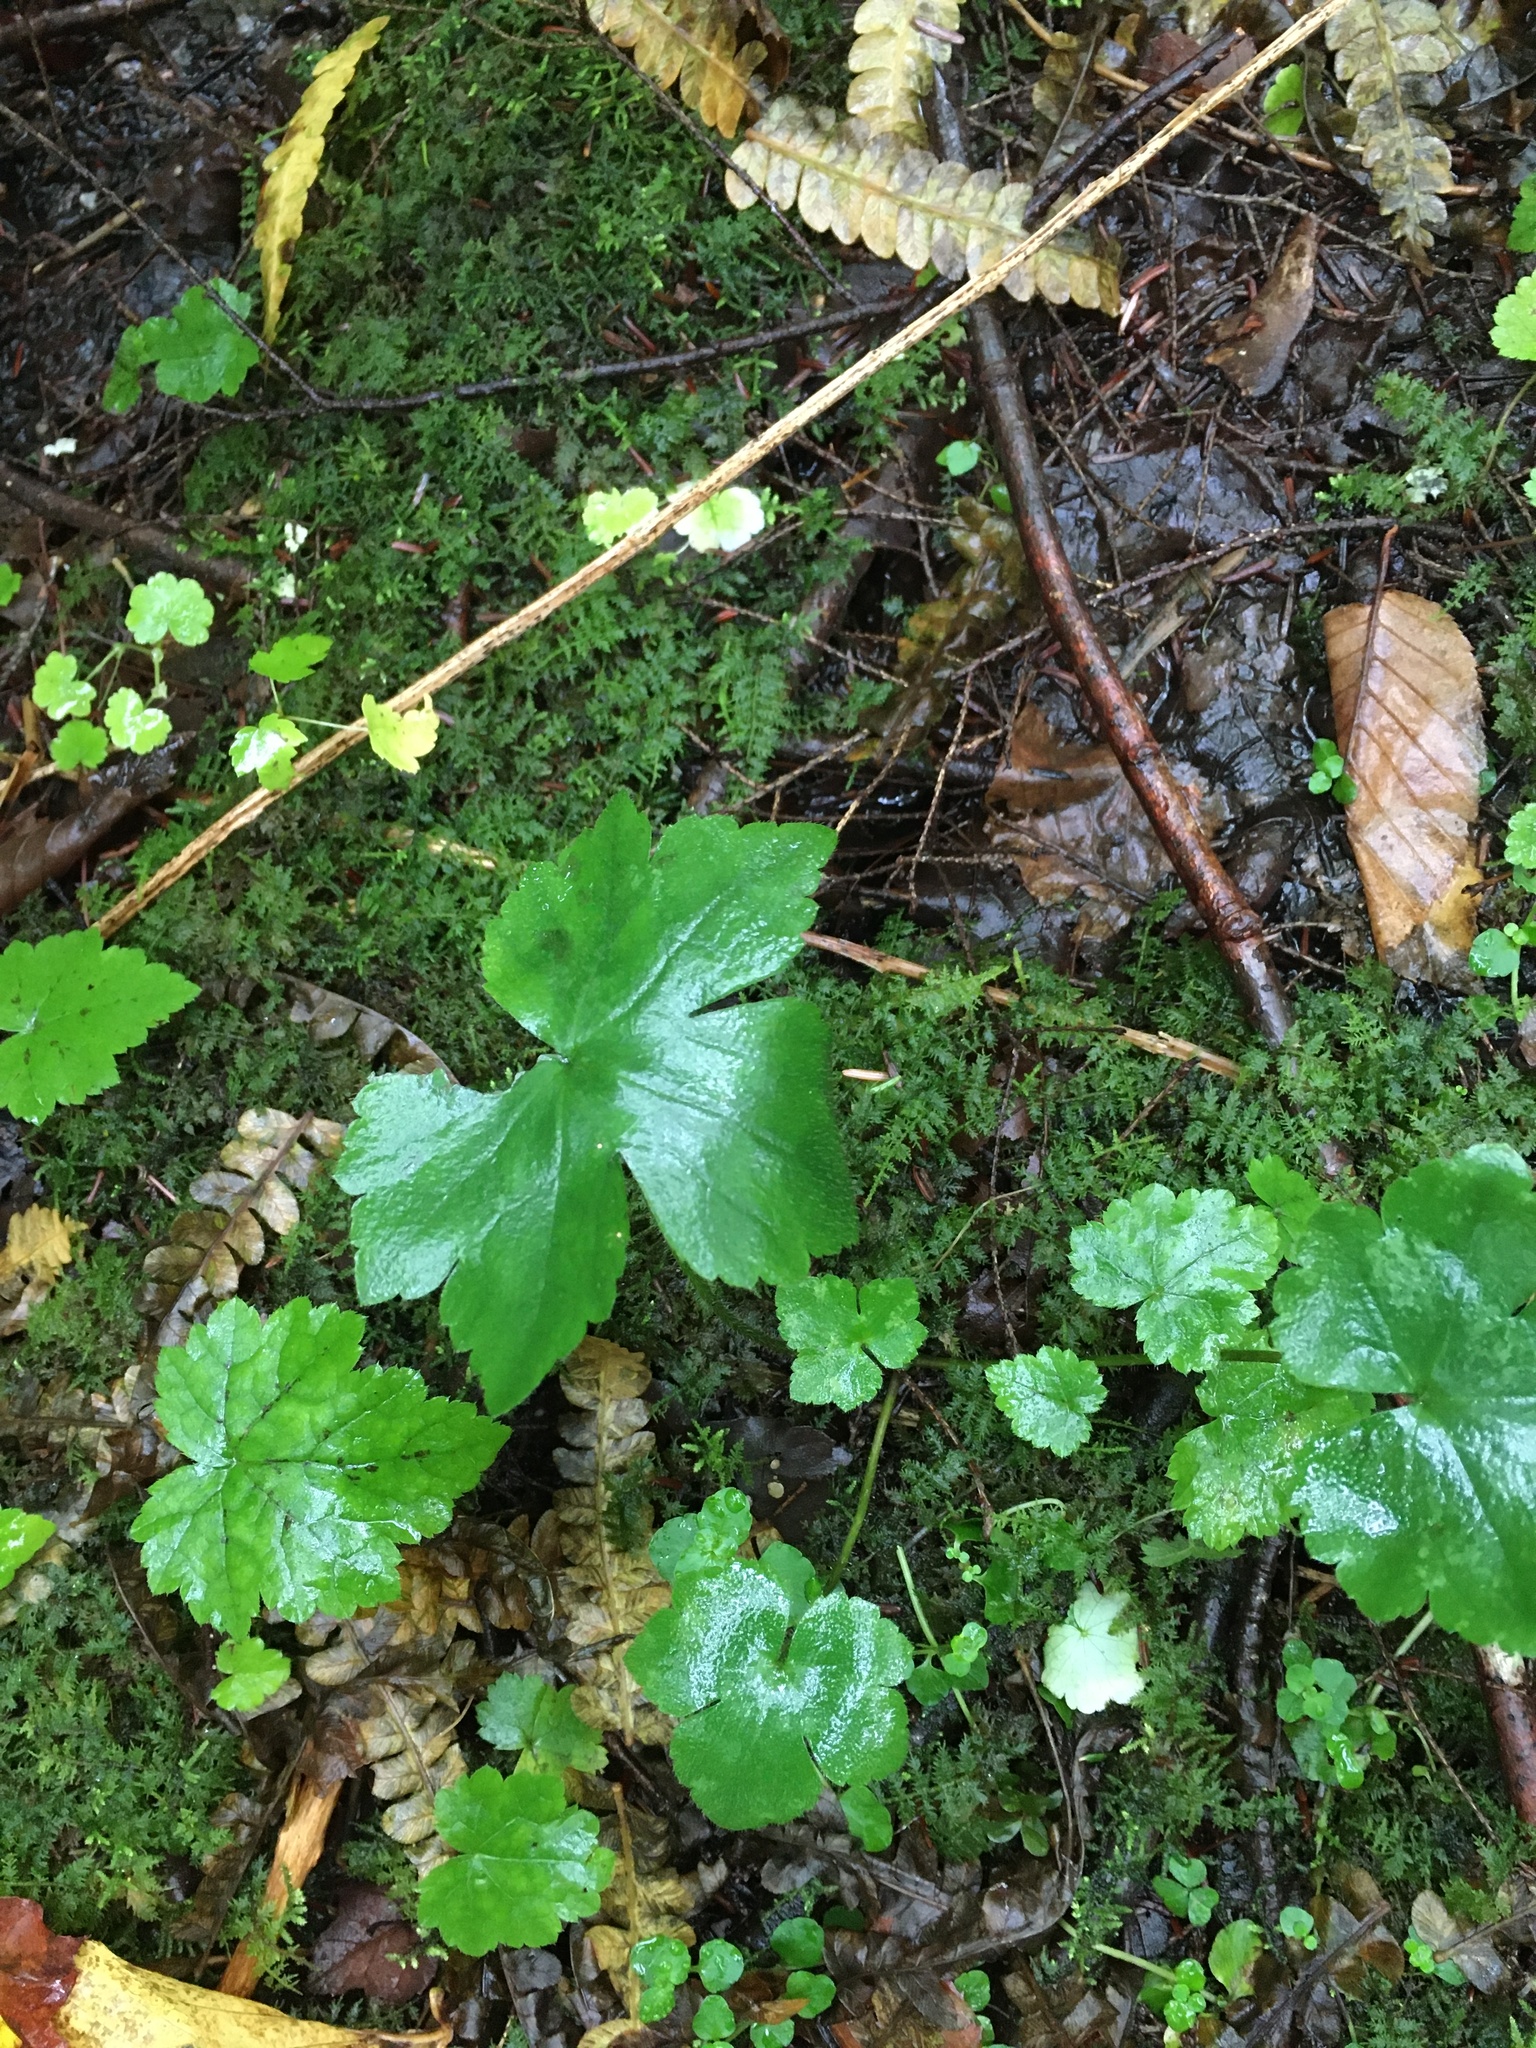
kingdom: Plantae
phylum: Tracheophyta
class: Magnoliopsida
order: Ranunculales
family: Ranunculaceae
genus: Ranunculus
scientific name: Ranunculus recurvatus
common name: Blisterwort
